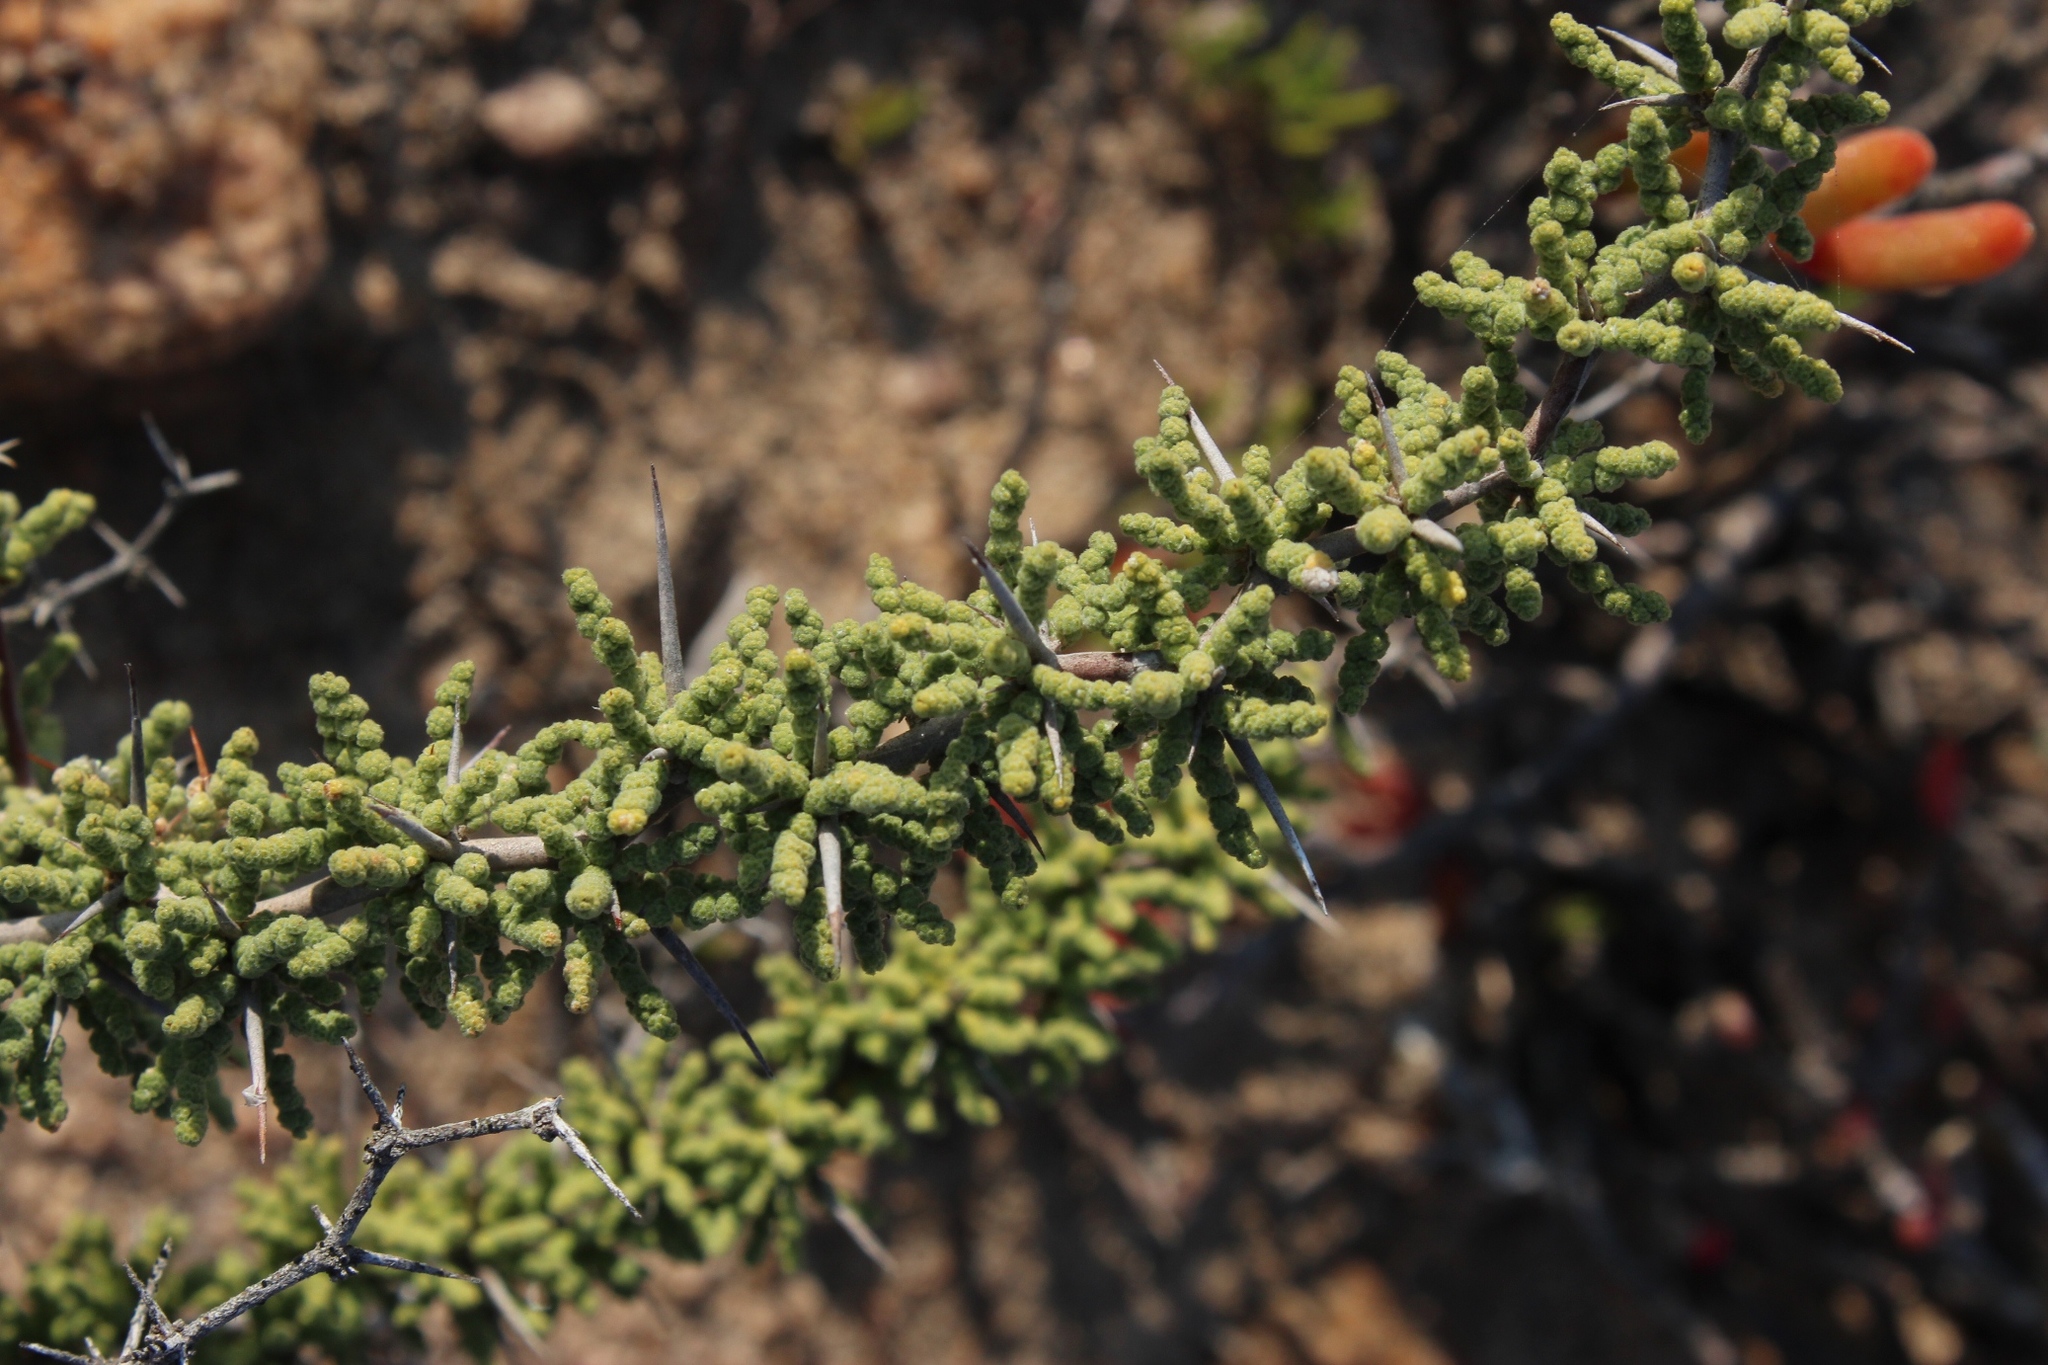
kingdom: Plantae
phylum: Tracheophyta
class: Liliopsida
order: Asparagales
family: Asparagaceae
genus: Asparagus
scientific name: Asparagus capensis
